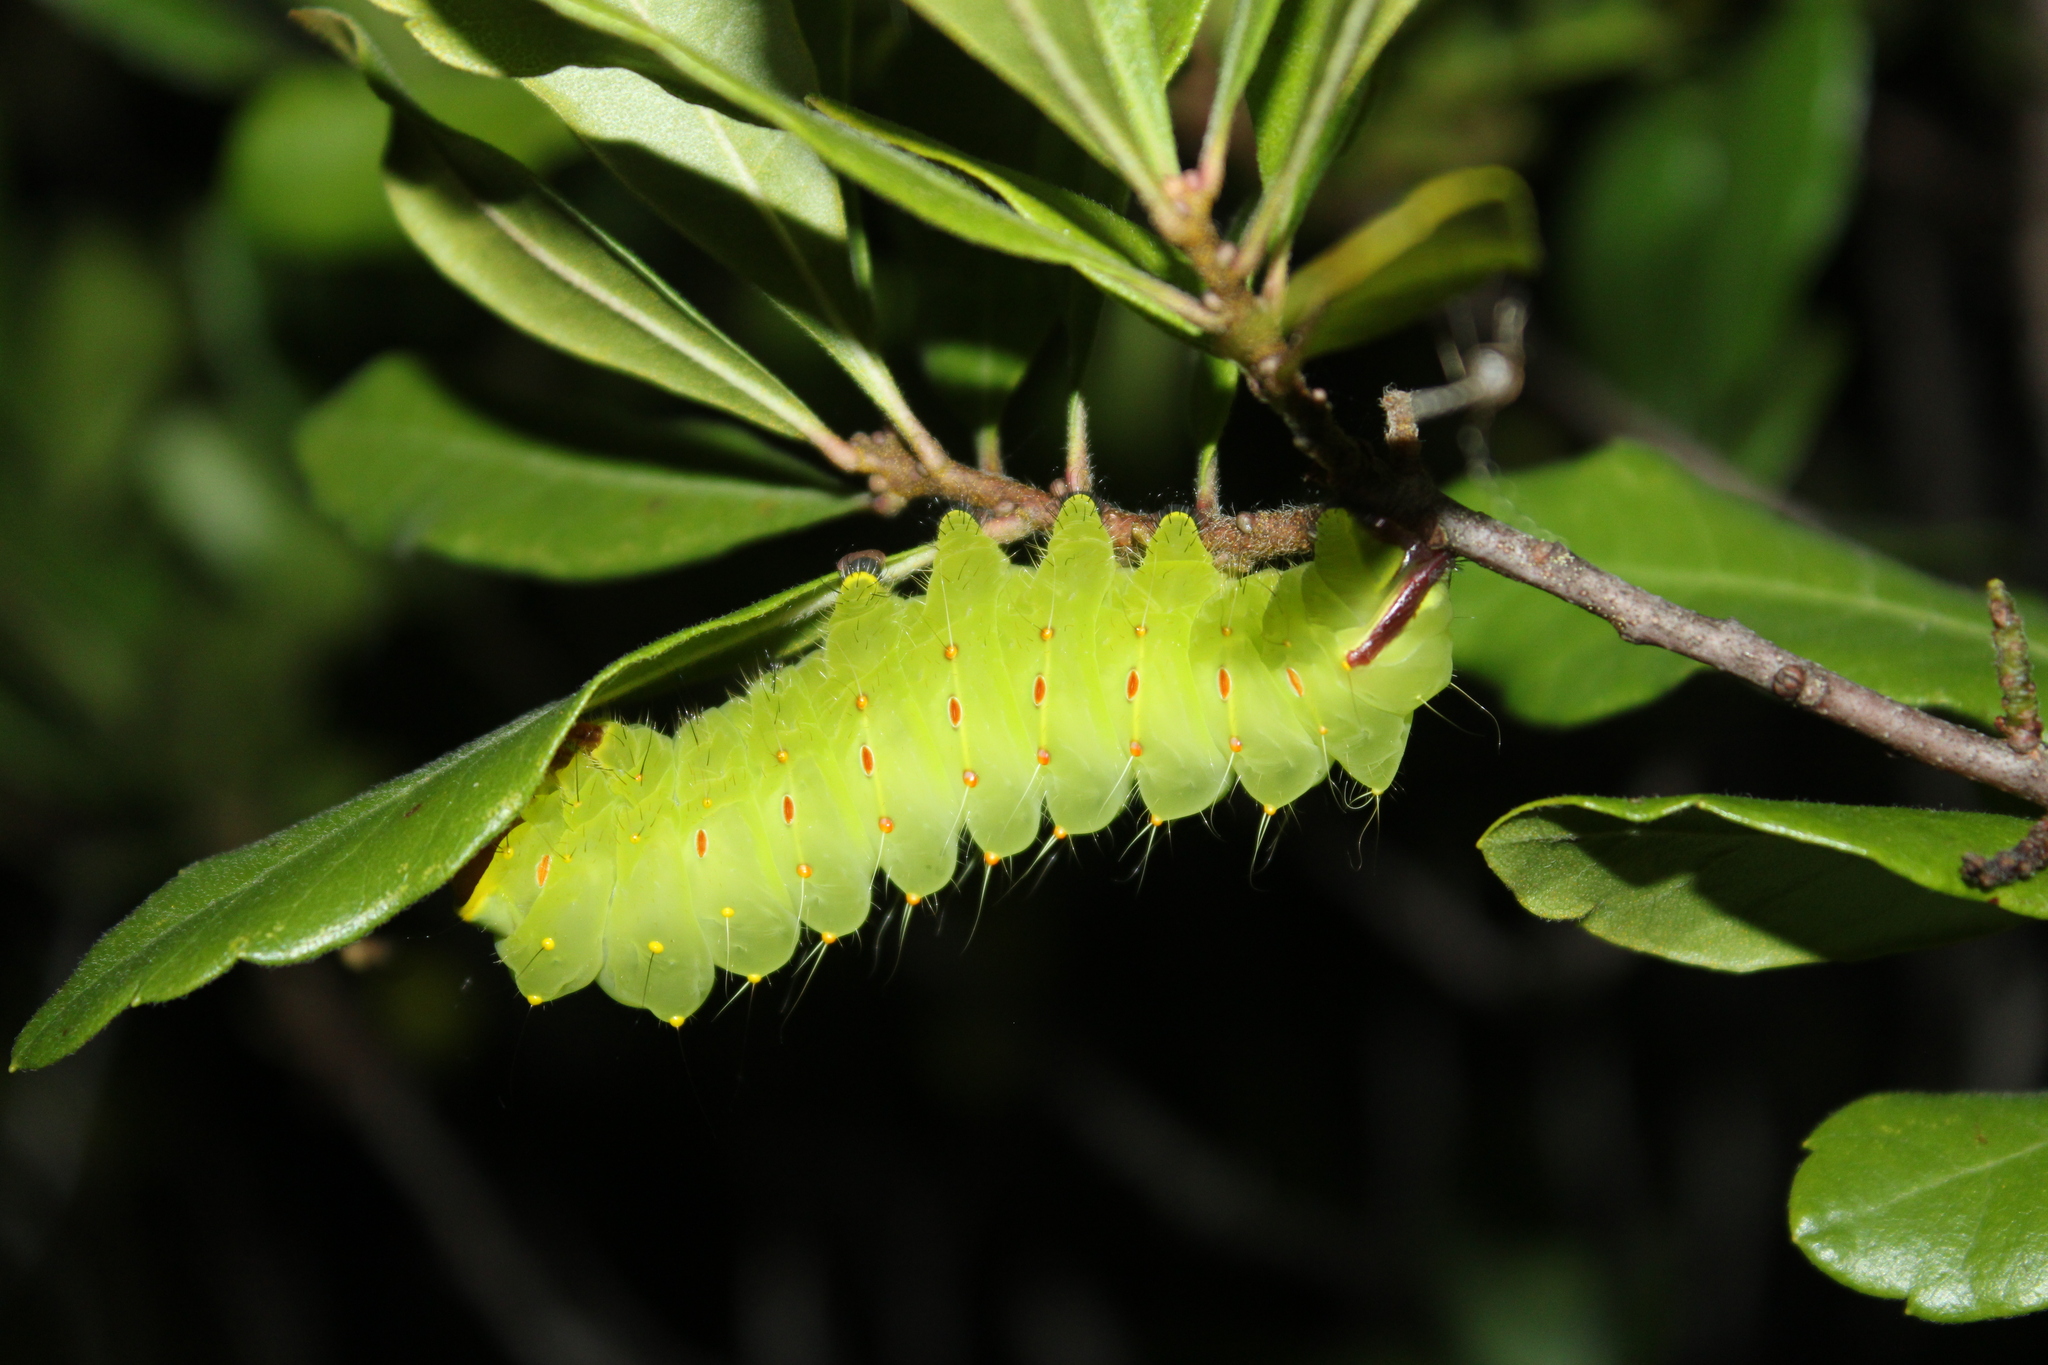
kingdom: Animalia
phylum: Arthropoda
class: Insecta
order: Lepidoptera
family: Saturniidae
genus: Antheraea
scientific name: Antheraea polyphemus
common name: Polyphemus moth
